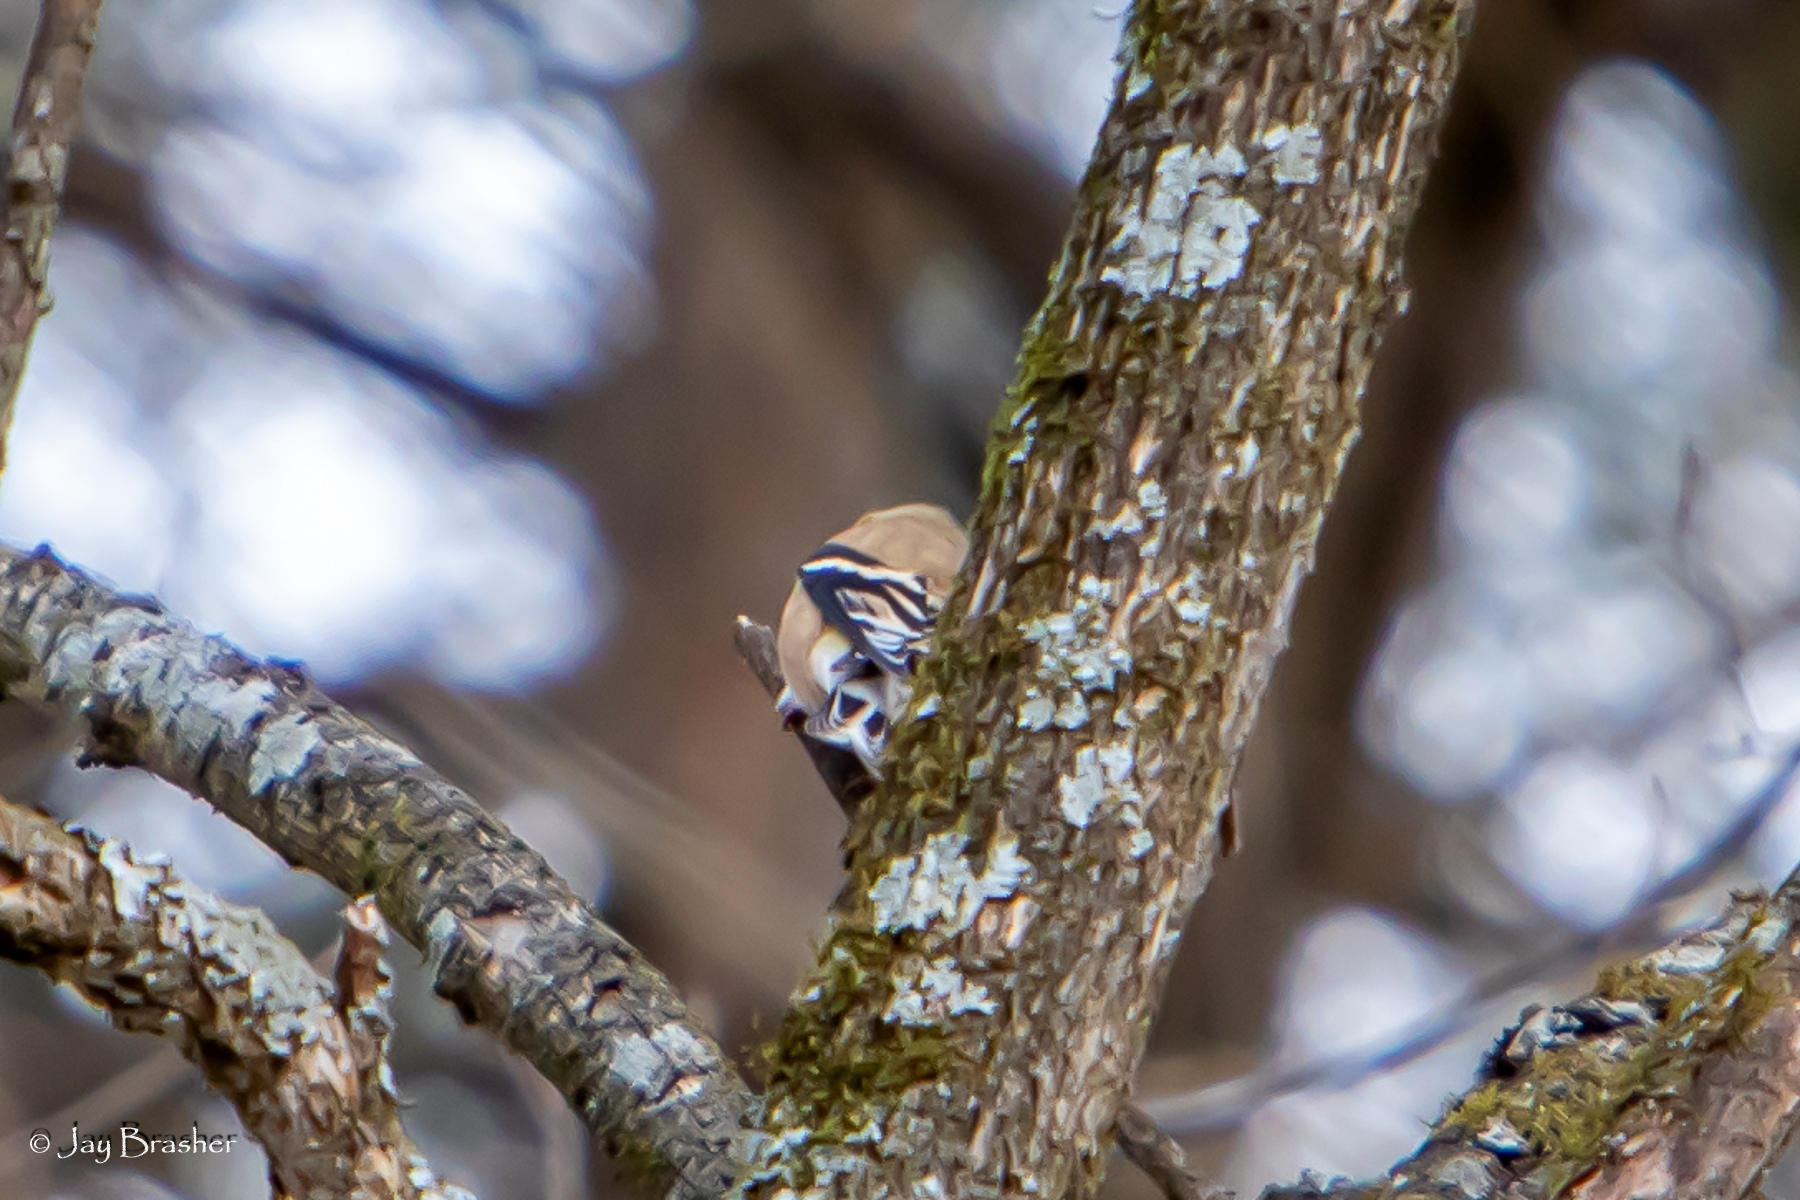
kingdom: Animalia
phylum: Chordata
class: Aves
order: Passeriformes
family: Fringillidae
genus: Spinus
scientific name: Spinus tristis
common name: American goldfinch
